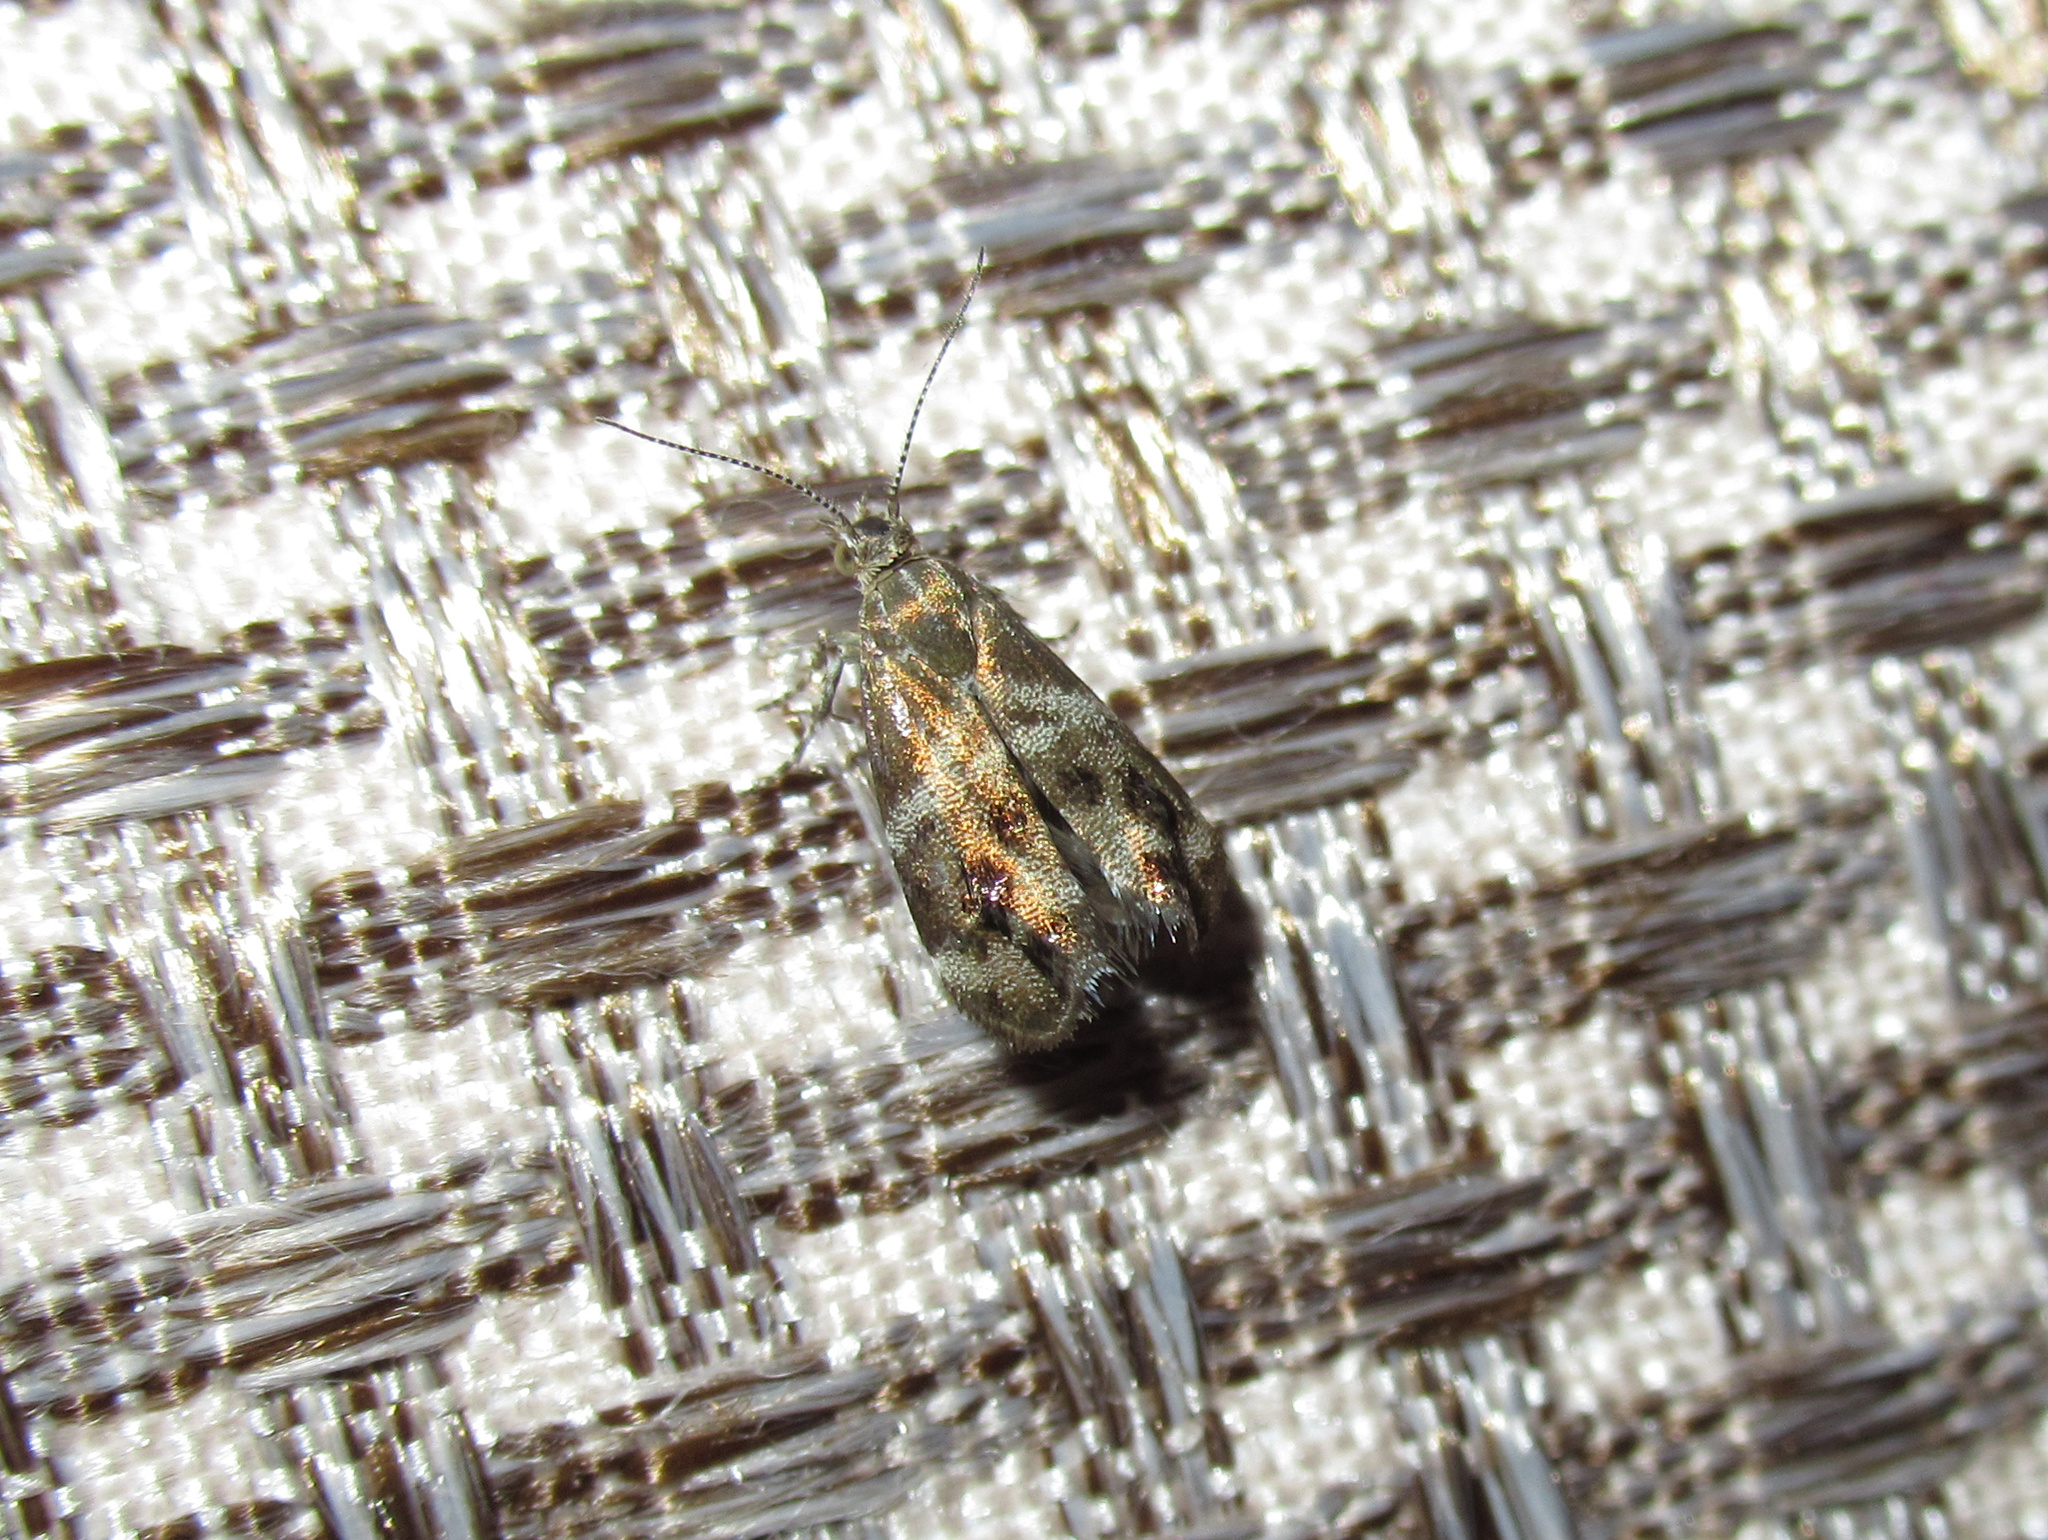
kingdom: Animalia
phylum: Arthropoda
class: Insecta
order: Lepidoptera
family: Choreutidae
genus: Tebenna
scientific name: Tebenna micalis
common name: Vagrant twitcher
